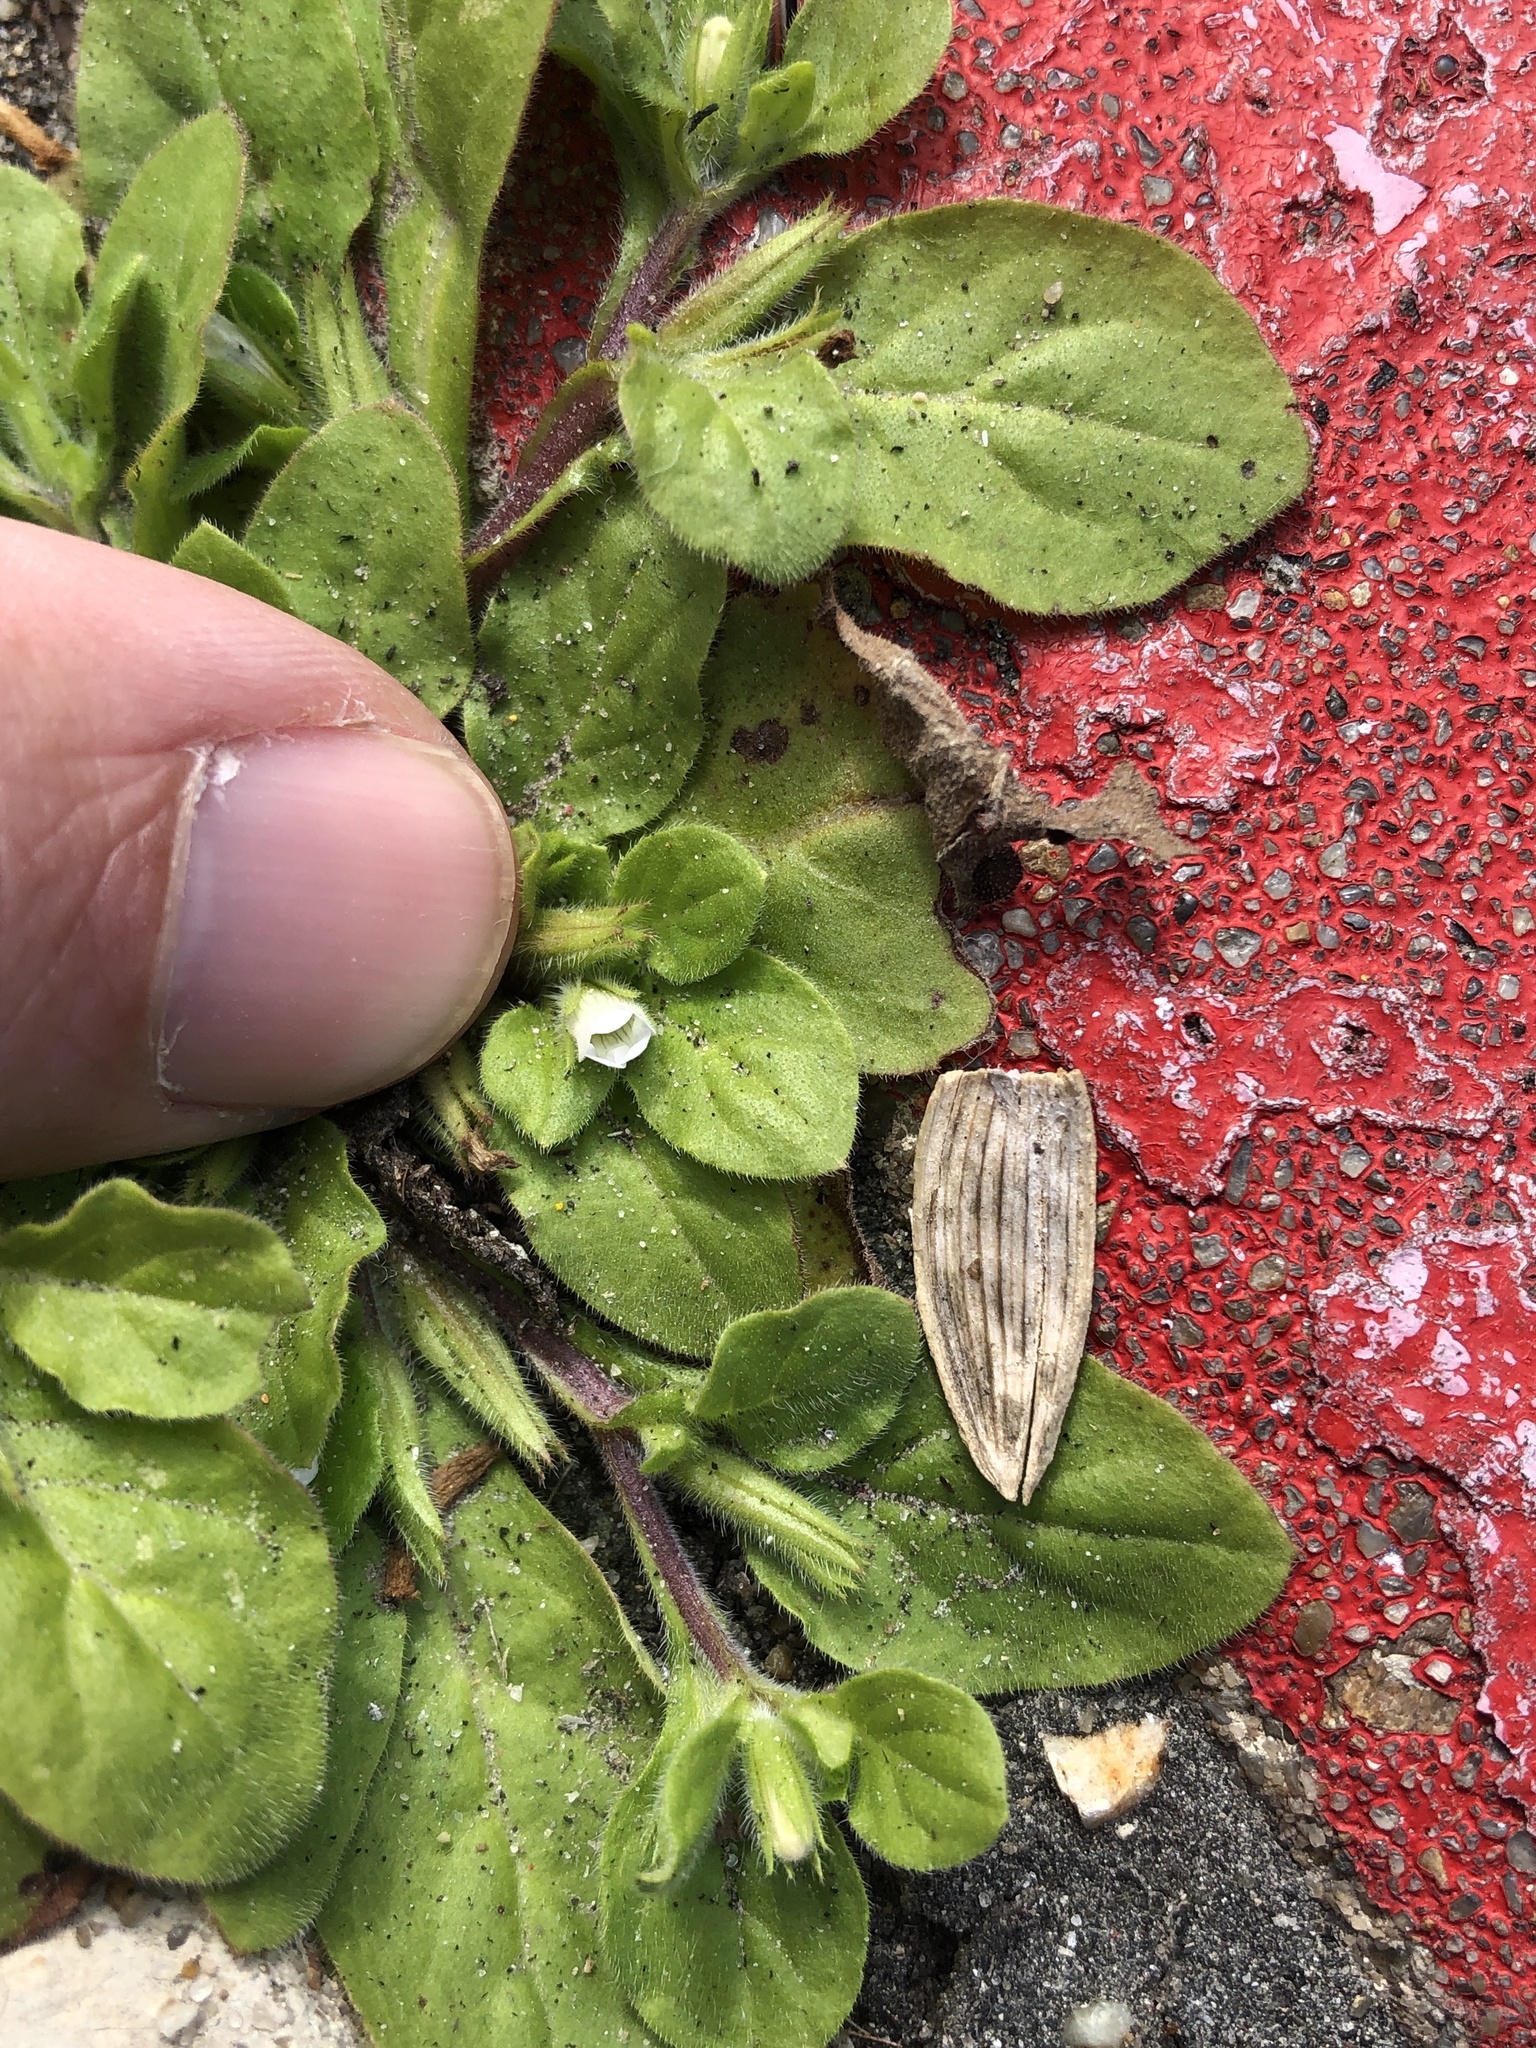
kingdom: Plantae
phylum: Tracheophyta
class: Magnoliopsida
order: Boraginales
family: Namaceae
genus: Nama
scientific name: Nama jamaicensis
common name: Jamaicanweed
